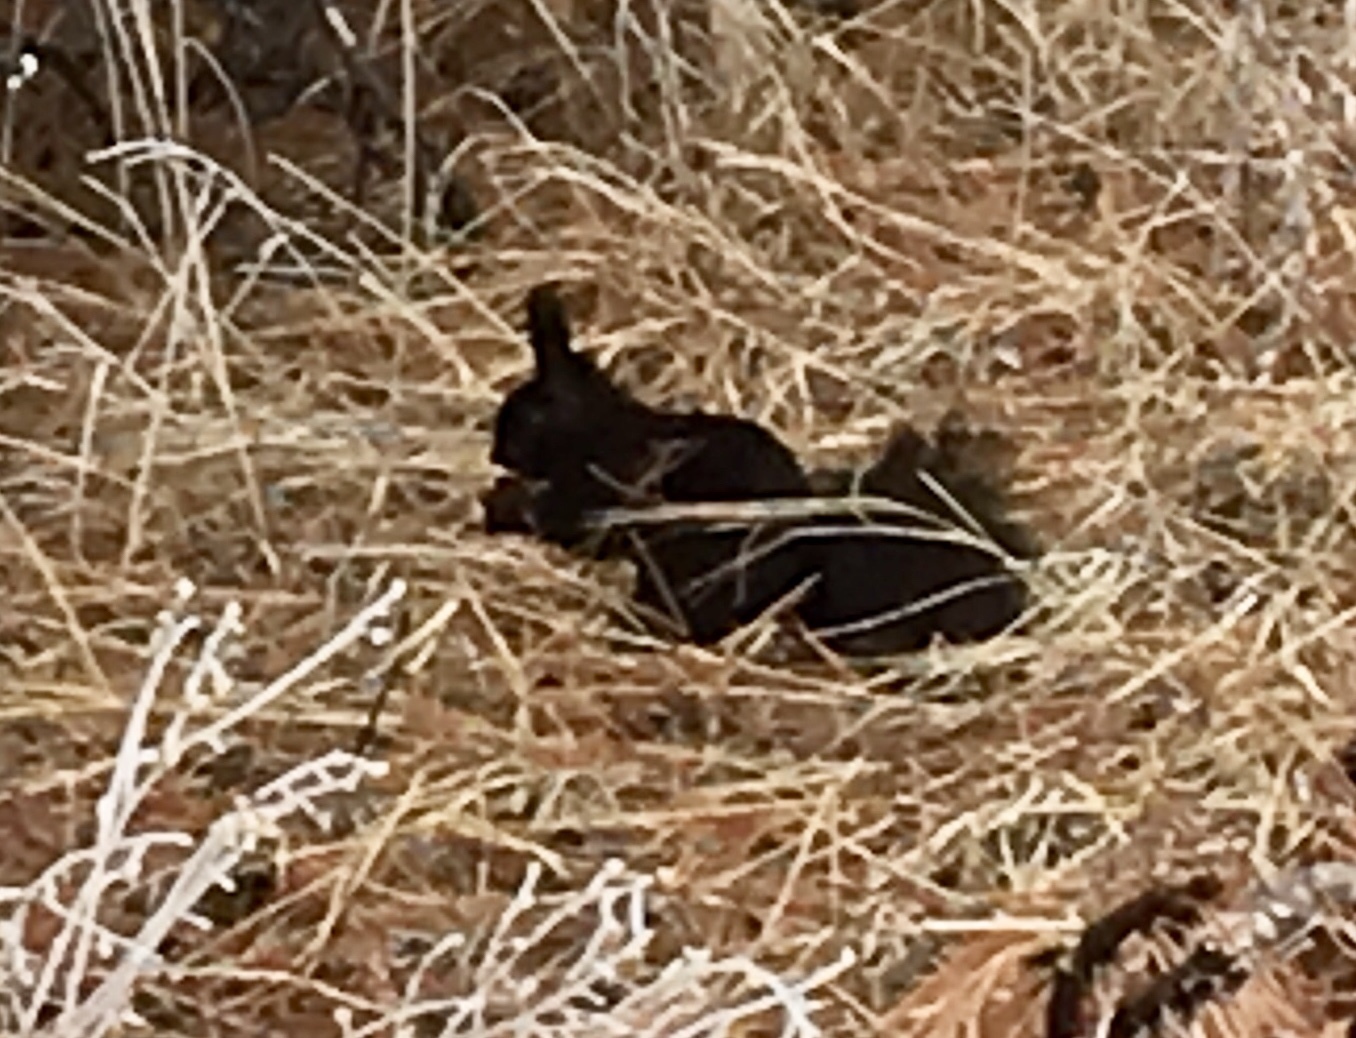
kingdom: Animalia
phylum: Chordata
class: Mammalia
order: Rodentia
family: Sciuridae
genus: Sciurus
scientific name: Sciurus aberti
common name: Abert's squirrel
